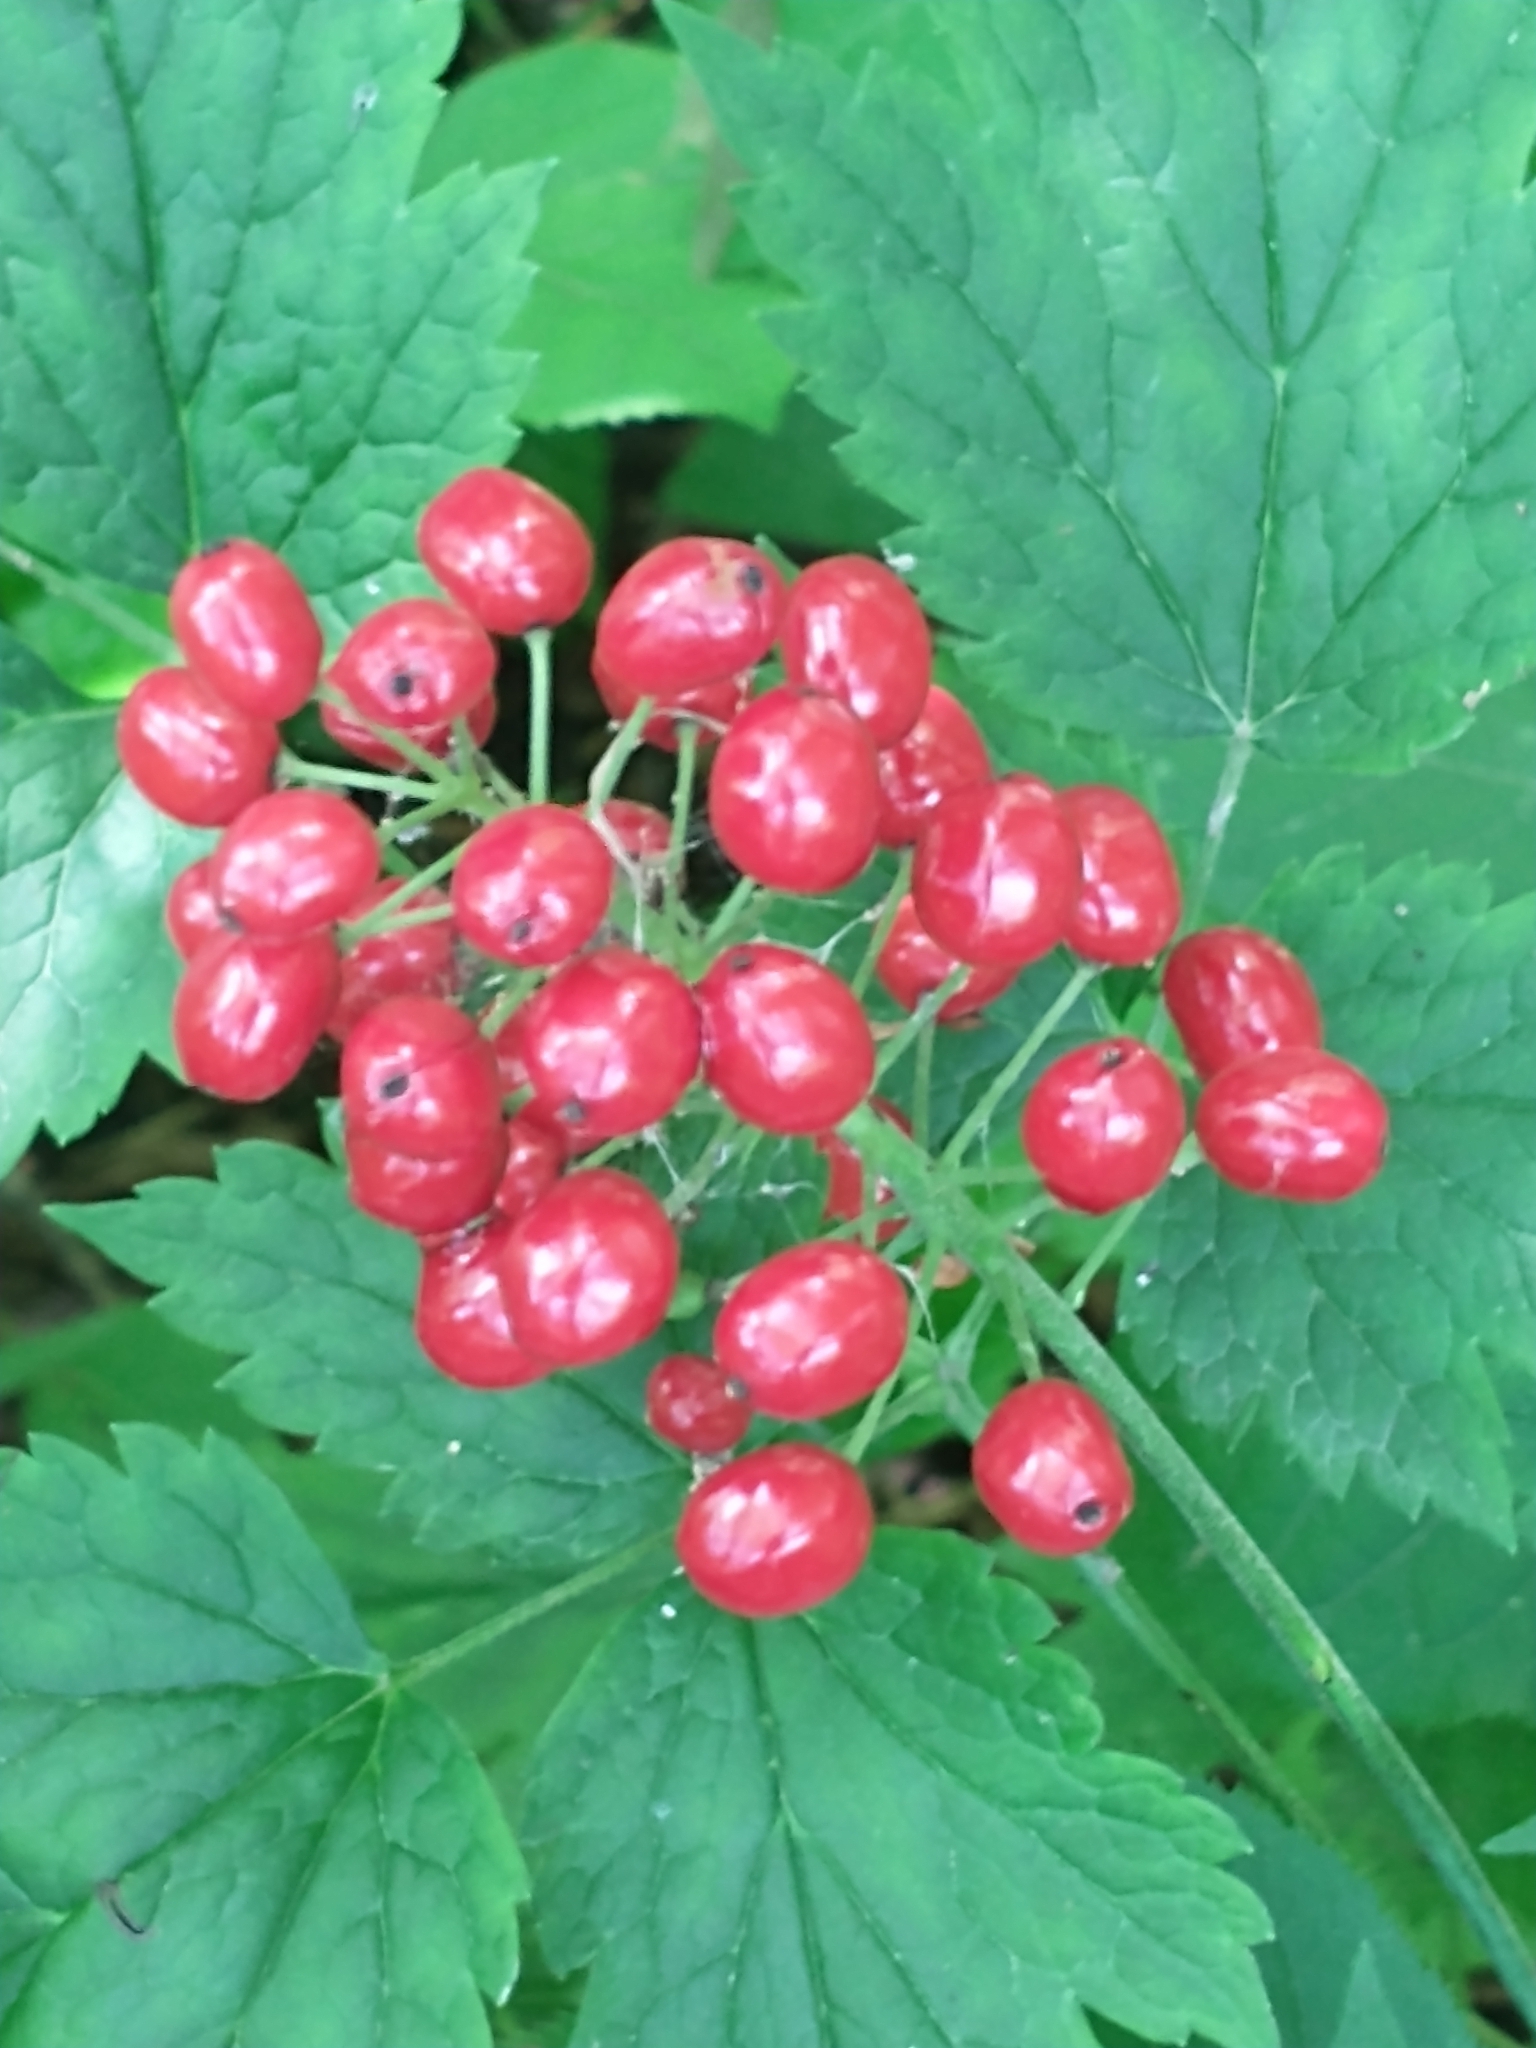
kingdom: Plantae
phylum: Tracheophyta
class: Magnoliopsida
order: Ranunculales
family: Ranunculaceae
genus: Actaea
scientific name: Actaea rubra
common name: Red baneberry
